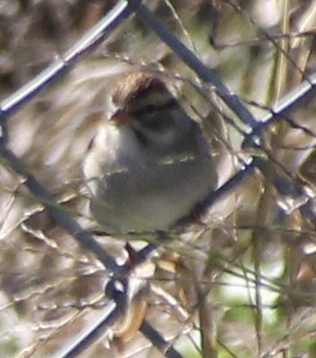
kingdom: Animalia
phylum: Chordata
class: Aves
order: Passeriformes
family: Passerellidae
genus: Spizella
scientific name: Spizella passerina
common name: Chipping sparrow
